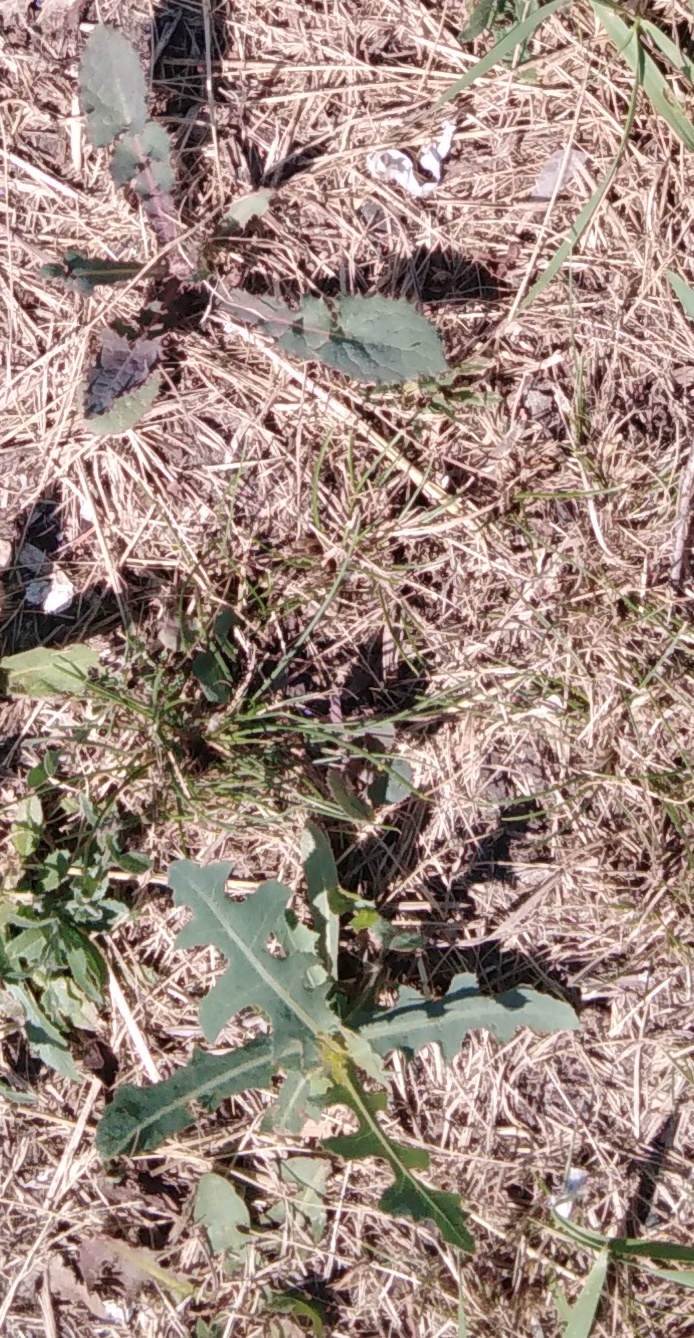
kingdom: Plantae
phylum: Tracheophyta
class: Magnoliopsida
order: Asterales
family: Asteraceae
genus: Lactuca
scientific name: Lactuca serriola
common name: Prickly lettuce
